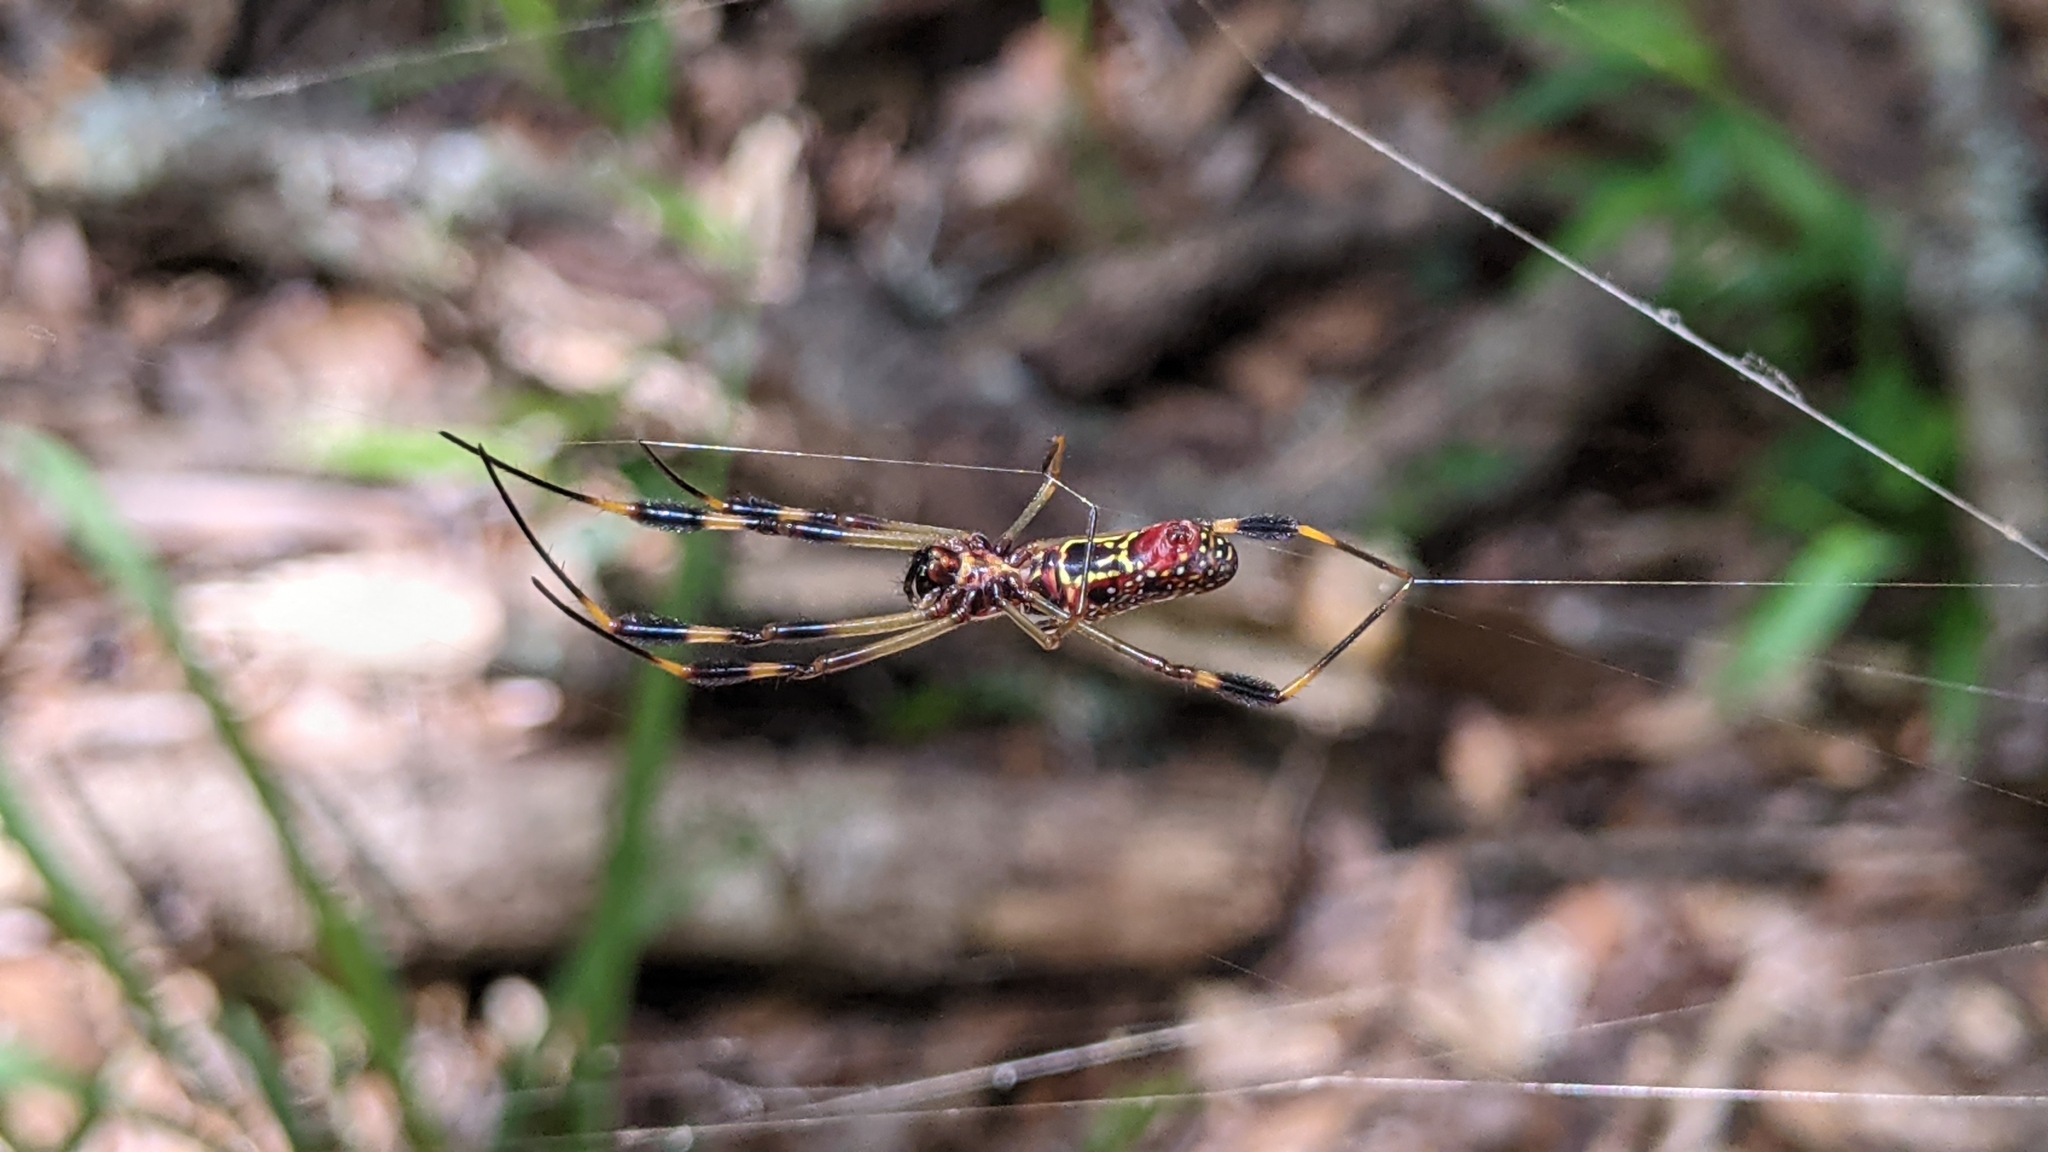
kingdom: Animalia
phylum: Arthropoda
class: Arachnida
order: Araneae
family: Araneidae
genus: Trichonephila
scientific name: Trichonephila clavipes
